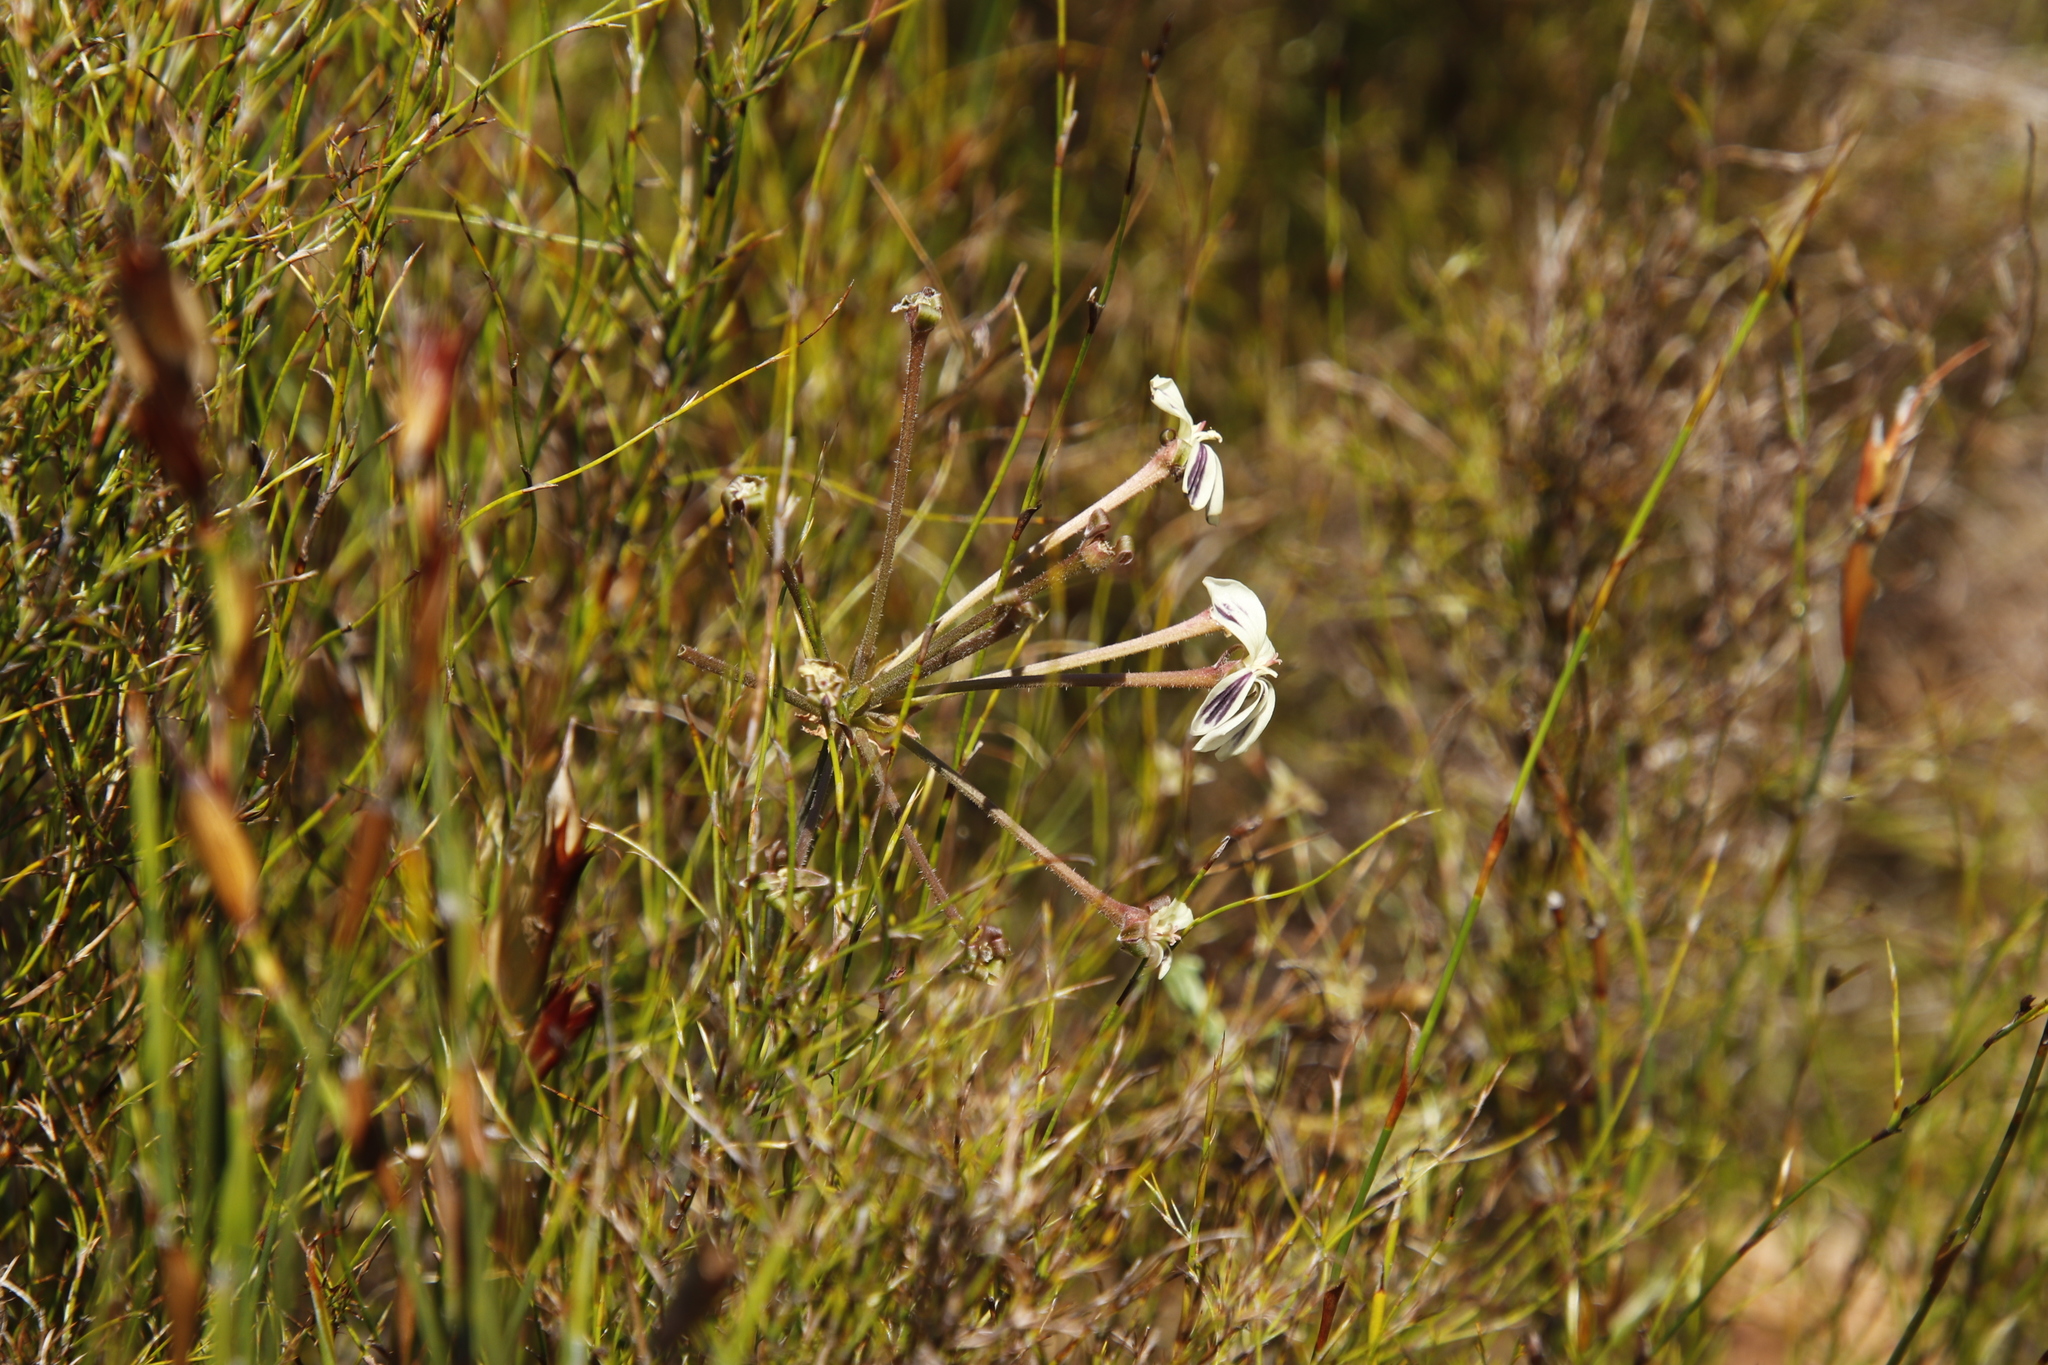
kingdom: Plantae
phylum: Tracheophyta
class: Magnoliopsida
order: Geraniales
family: Geraniaceae
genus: Pelargonium
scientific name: Pelargonium triste
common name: Night-scent pelargonium
